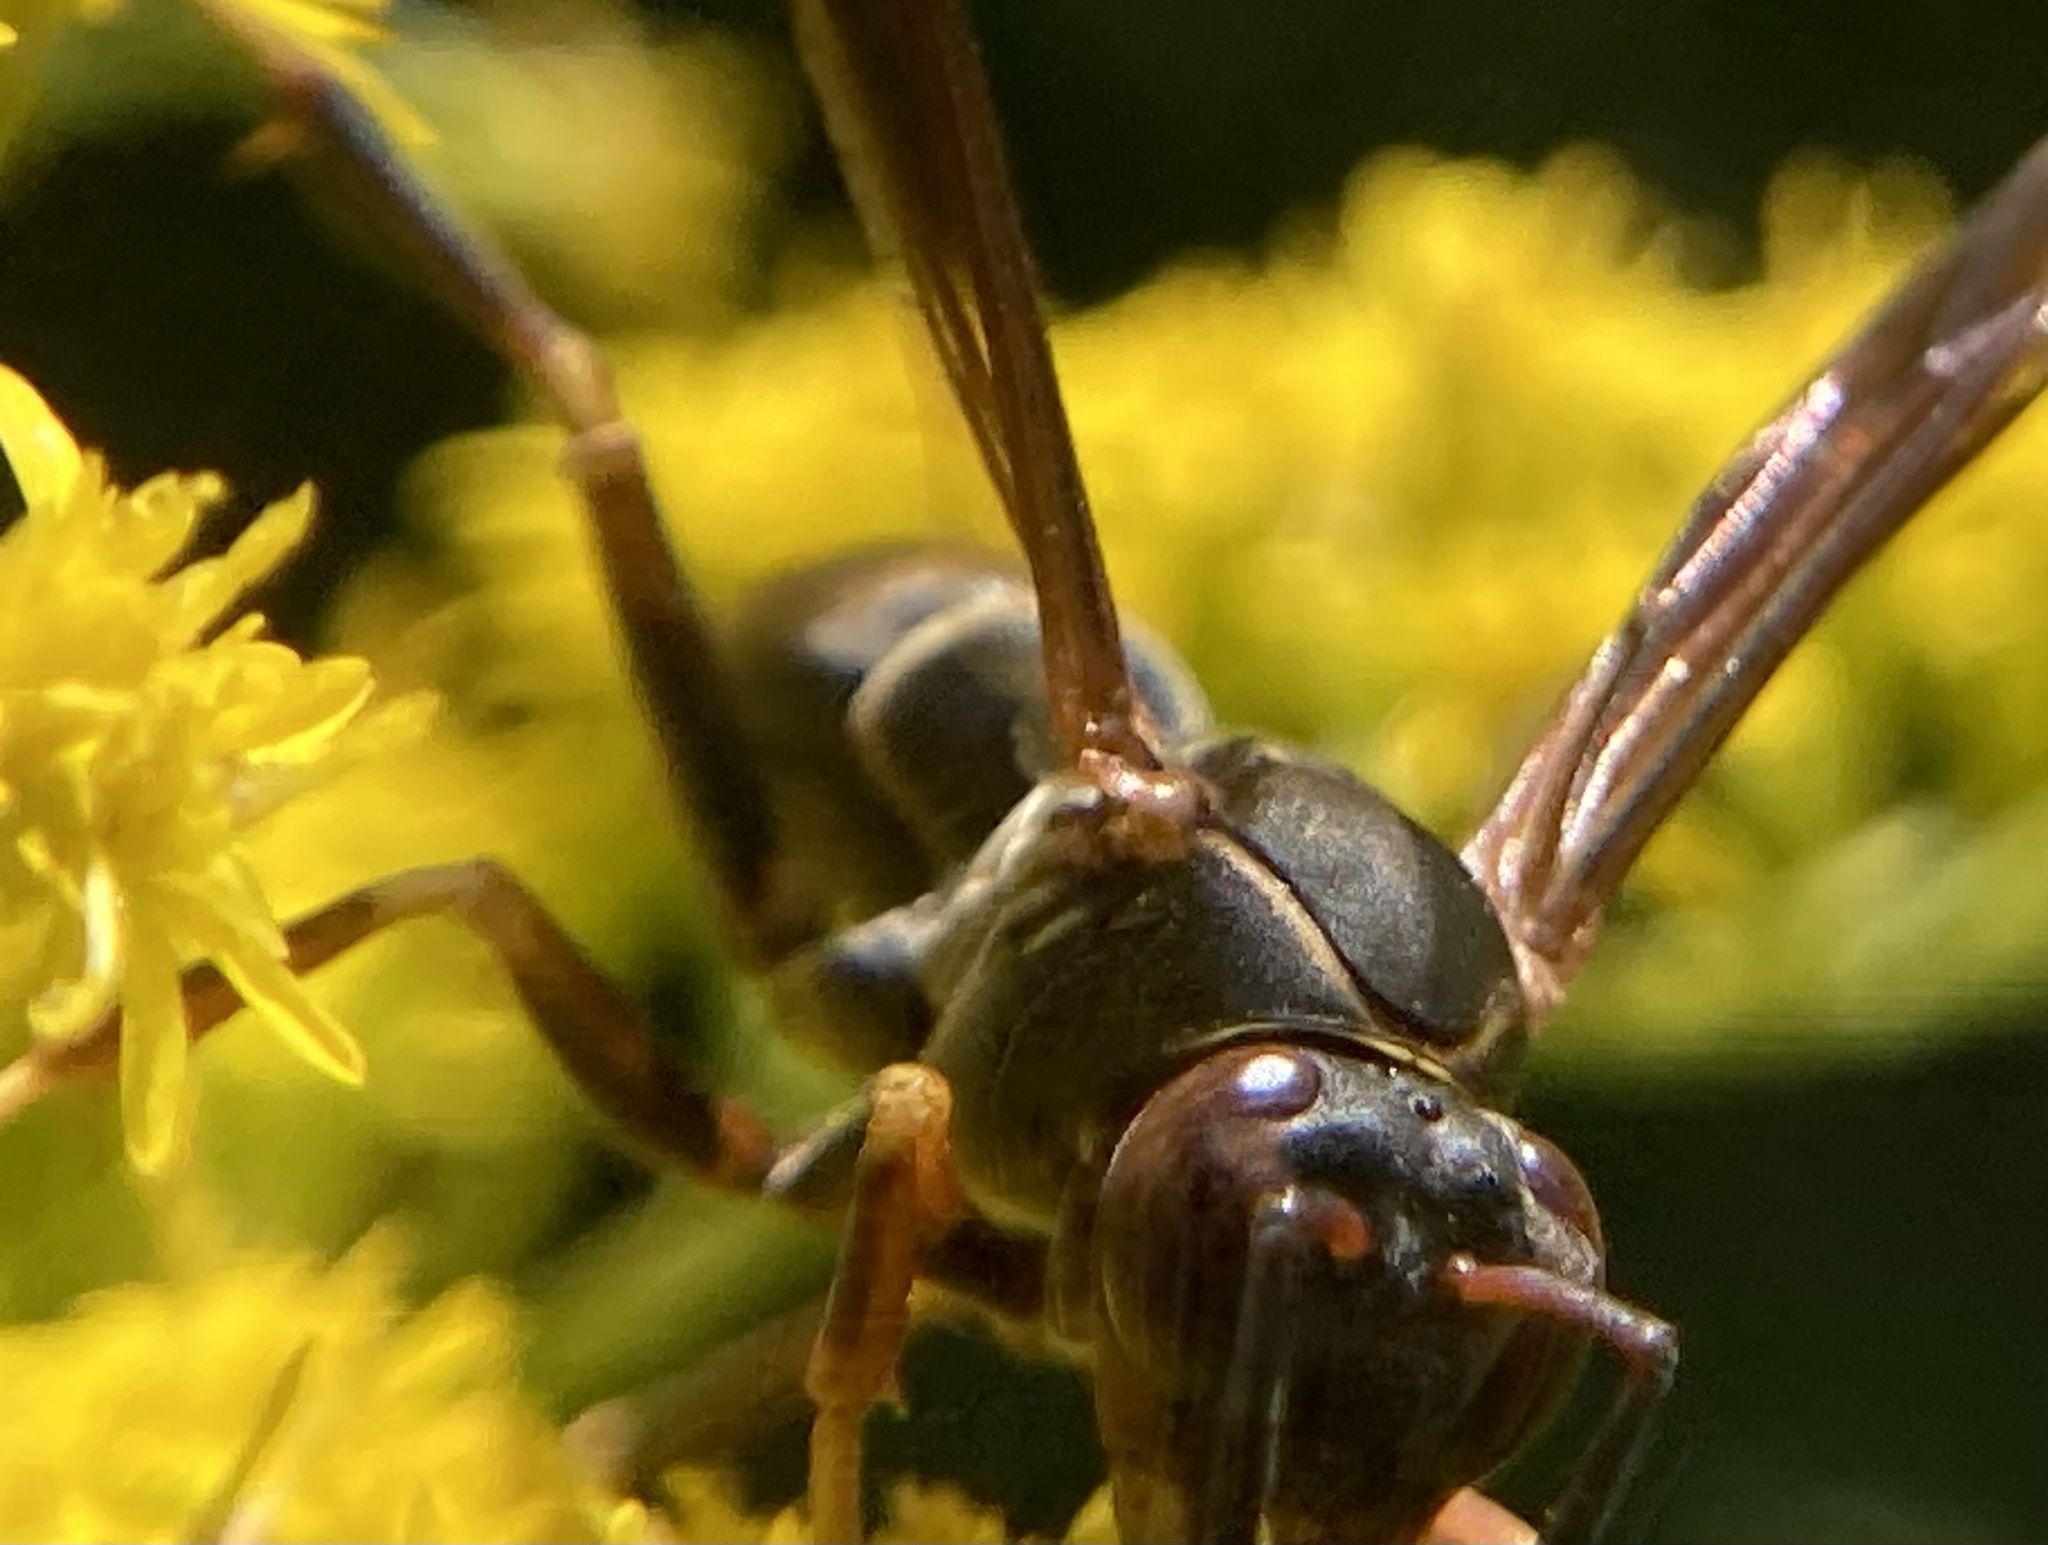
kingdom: Animalia
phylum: Arthropoda
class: Insecta
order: Hymenoptera
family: Eumenidae
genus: Polistes
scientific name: Polistes fuscatus
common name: Dark paper wasp
